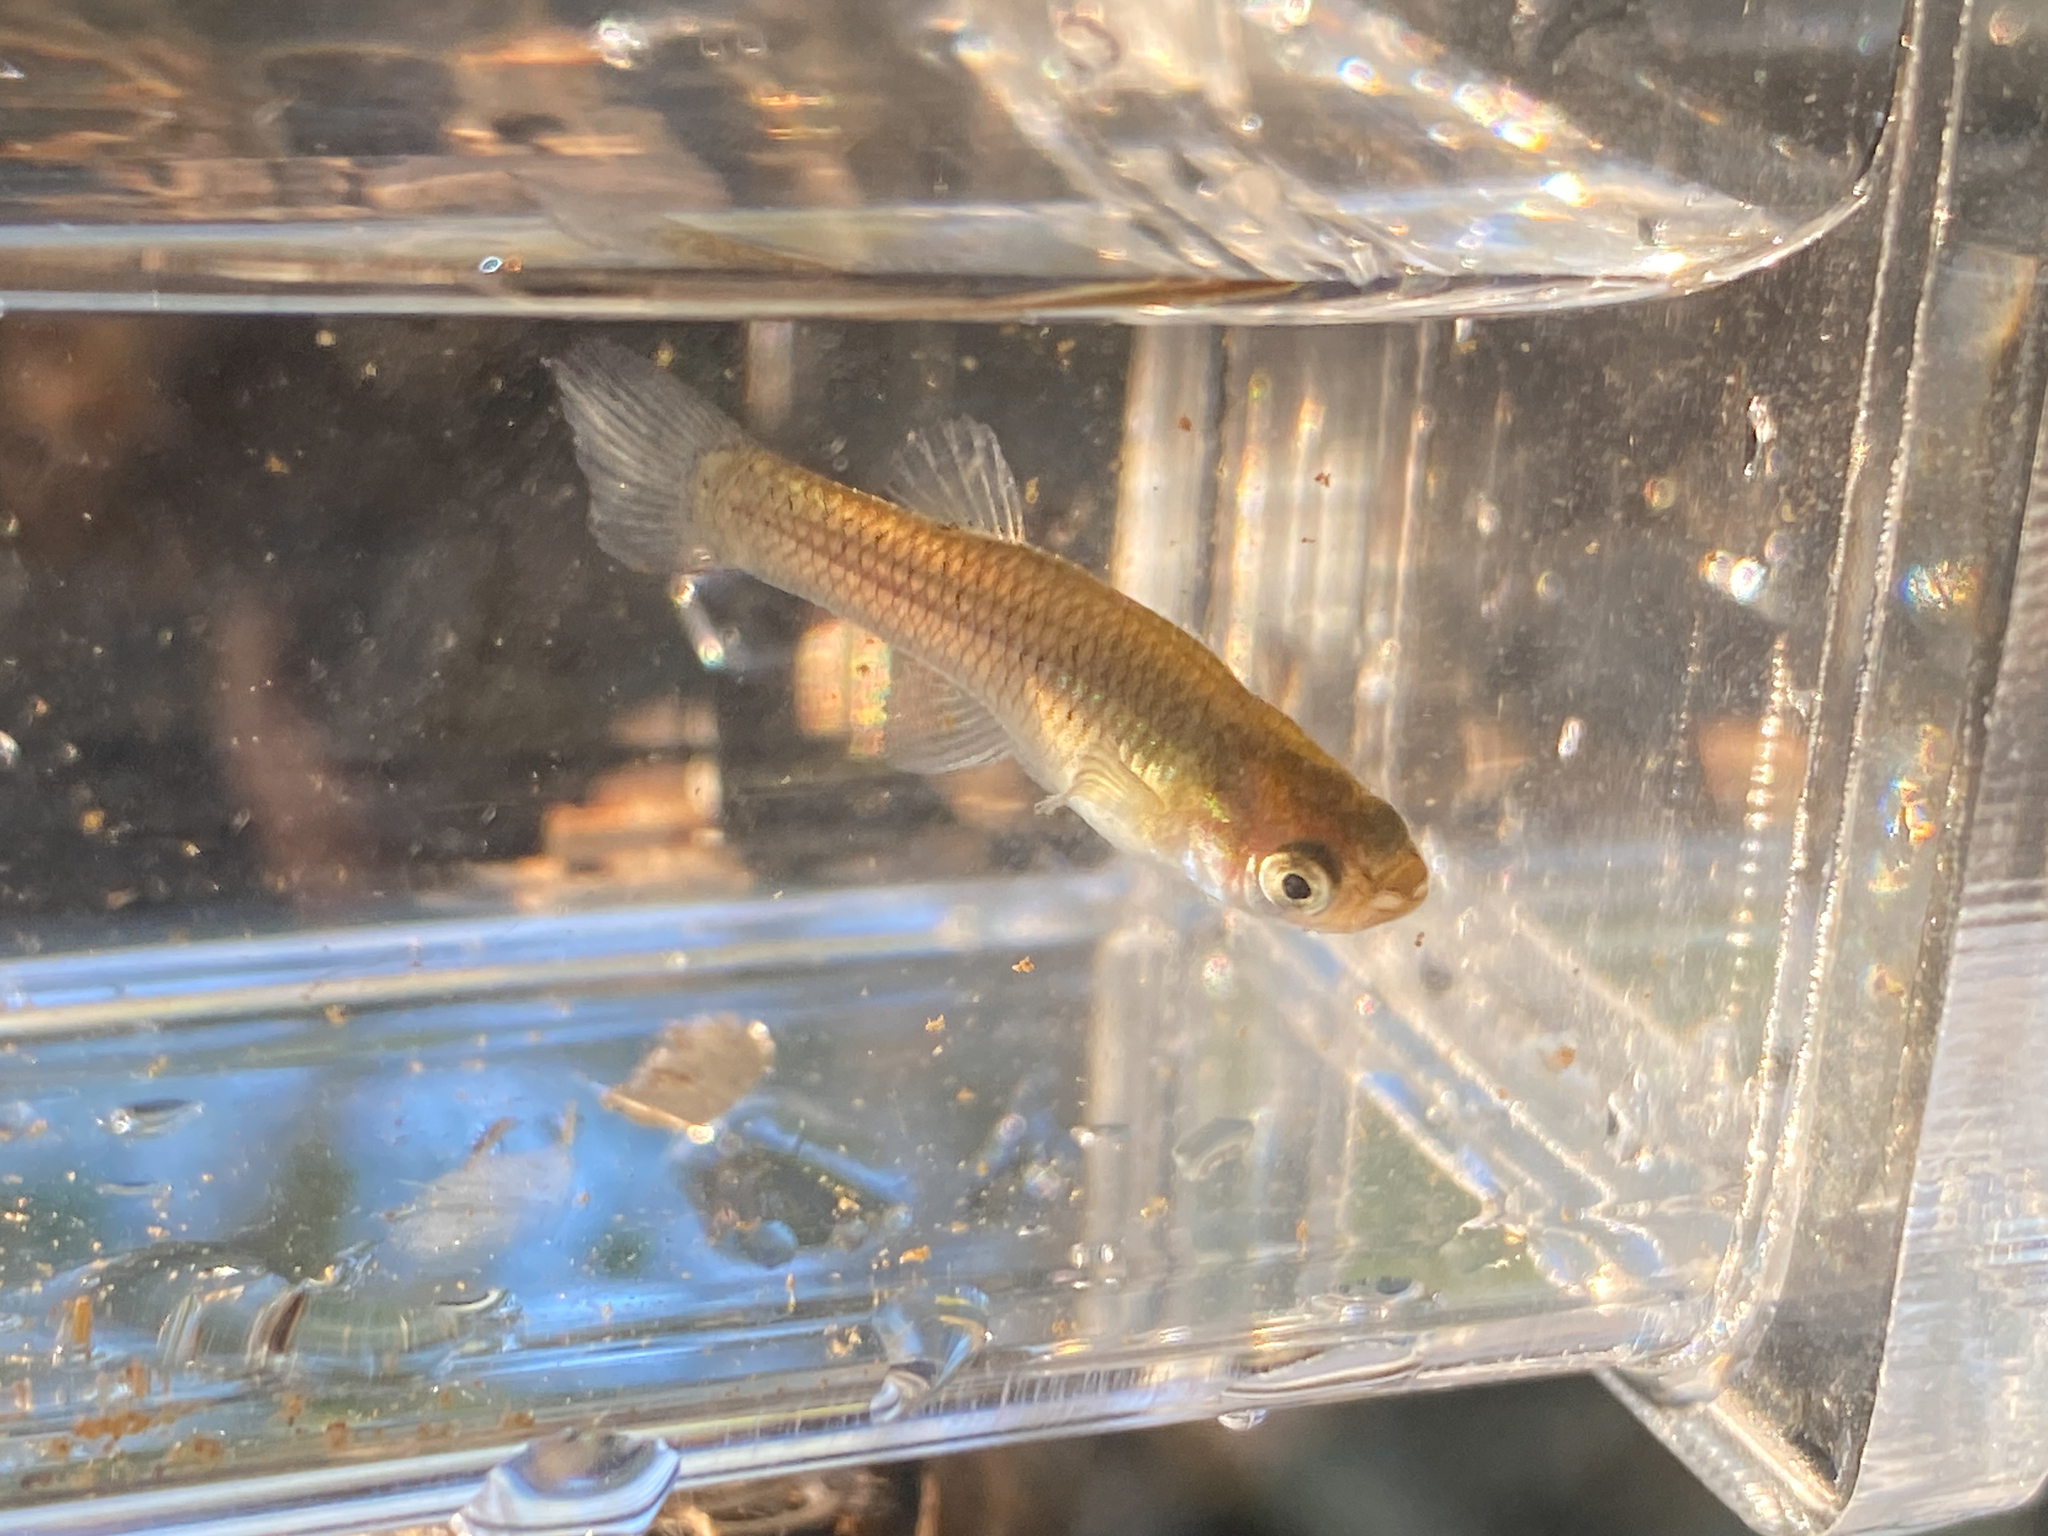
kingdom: Animalia
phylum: Chordata
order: Cyprinodontiformes
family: Poeciliidae
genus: Gambusia
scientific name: Gambusia holbrooki
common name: Eastern mosquitofish
